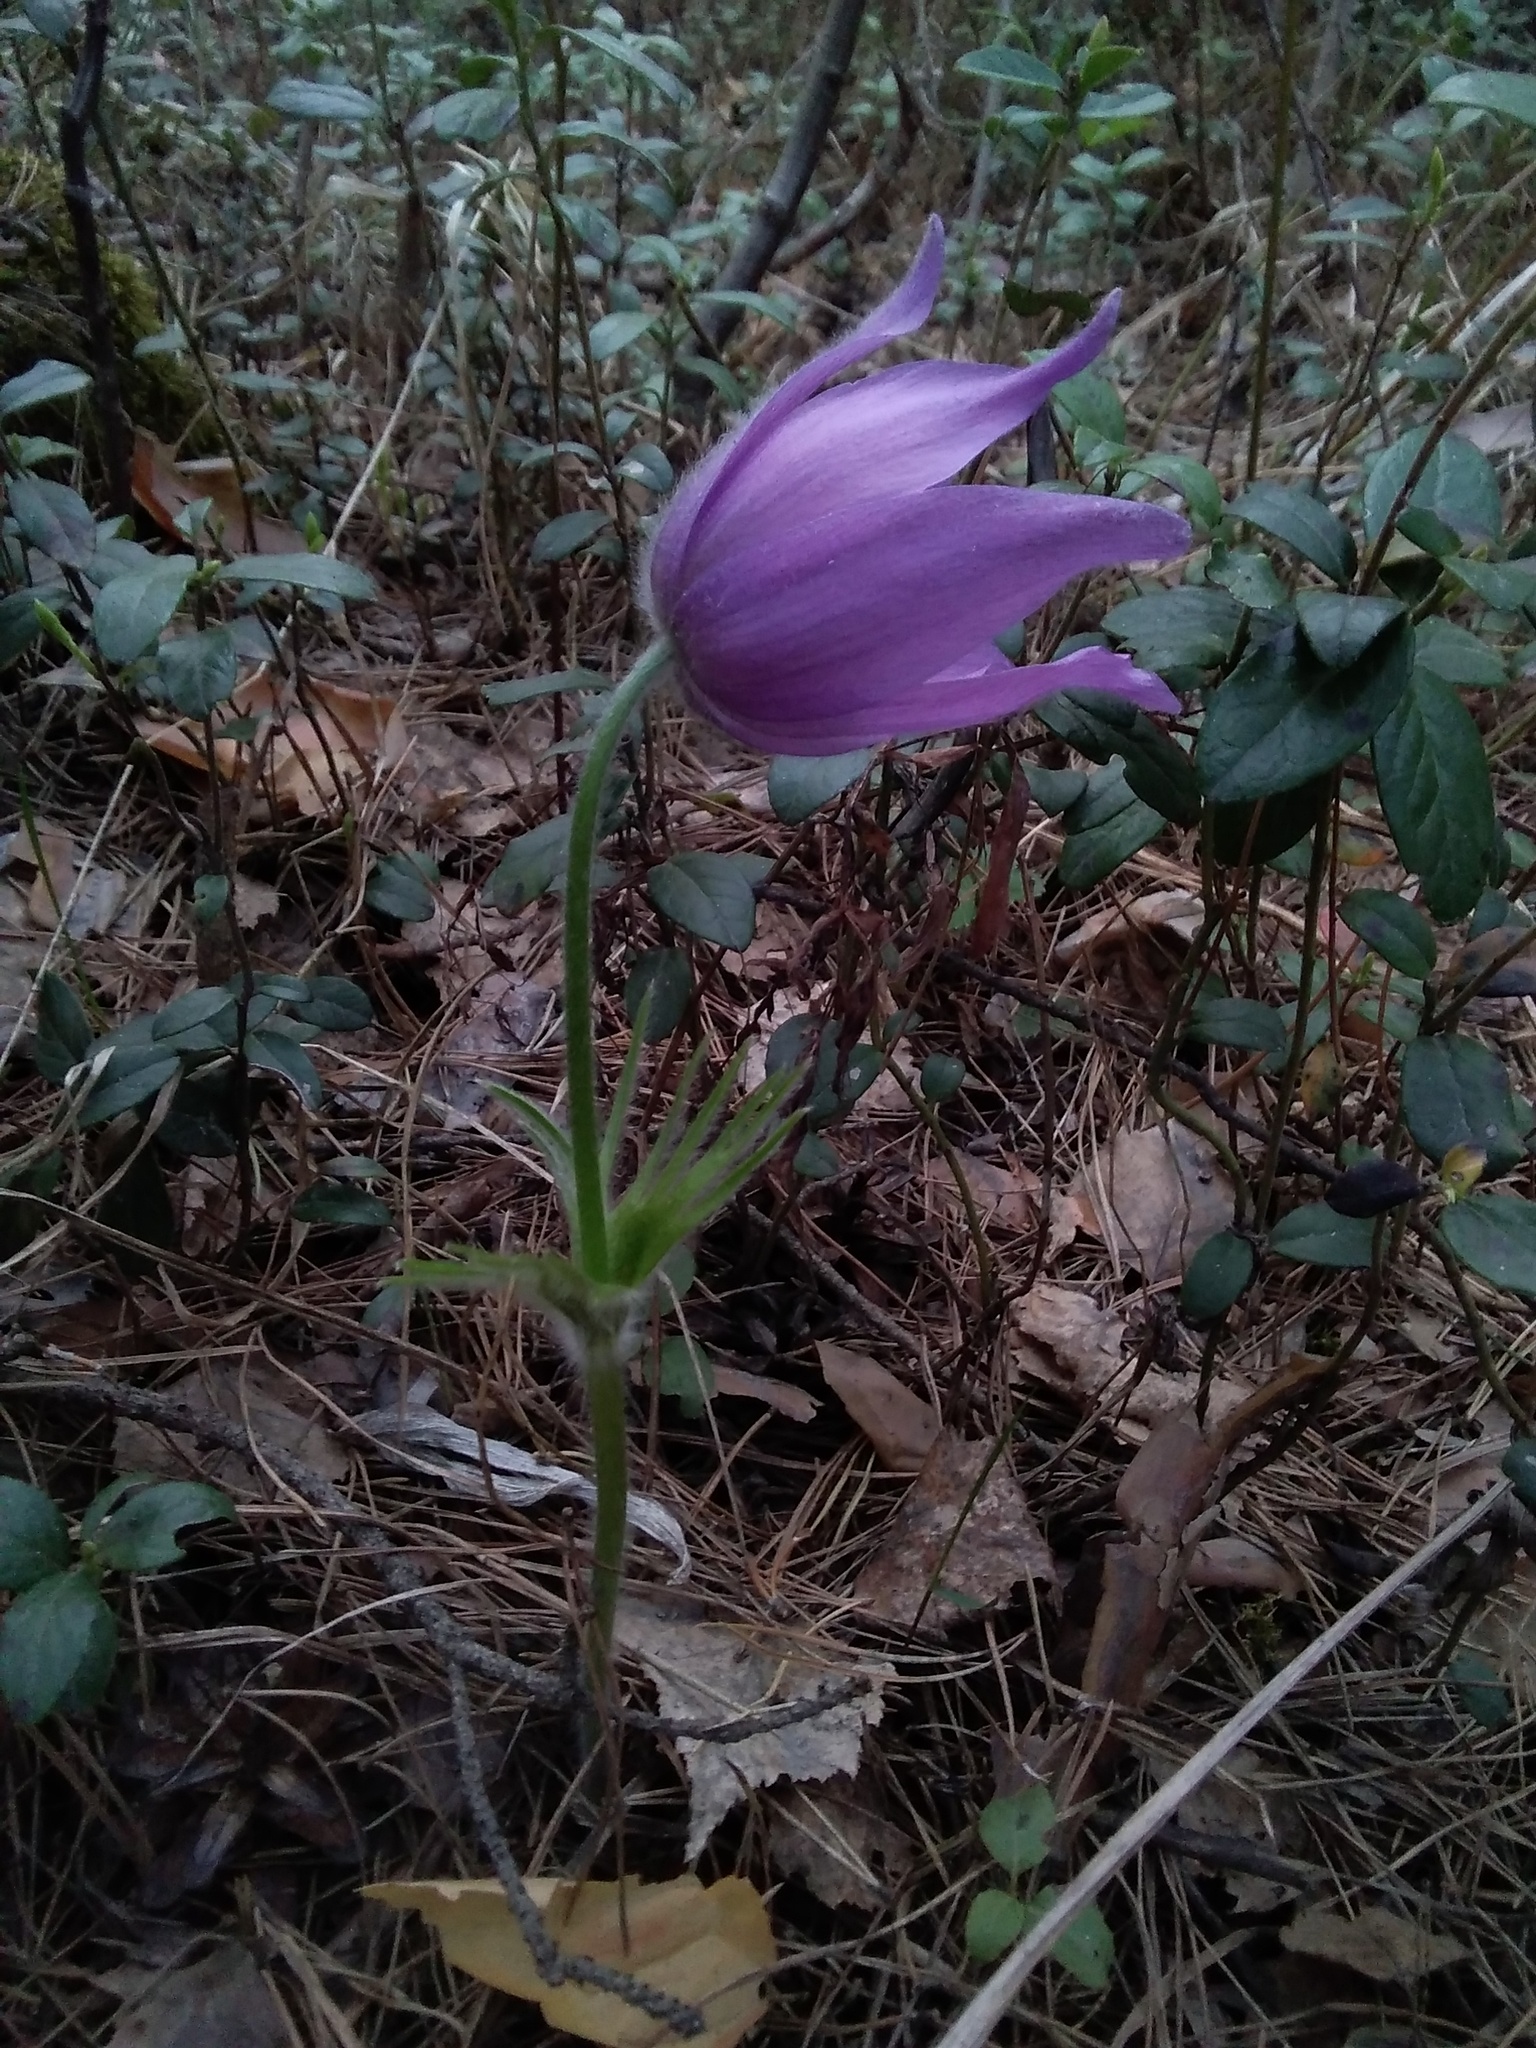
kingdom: Plantae
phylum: Tracheophyta
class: Magnoliopsida
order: Ranunculales
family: Ranunculaceae
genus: Pulsatilla
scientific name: Pulsatilla patens
